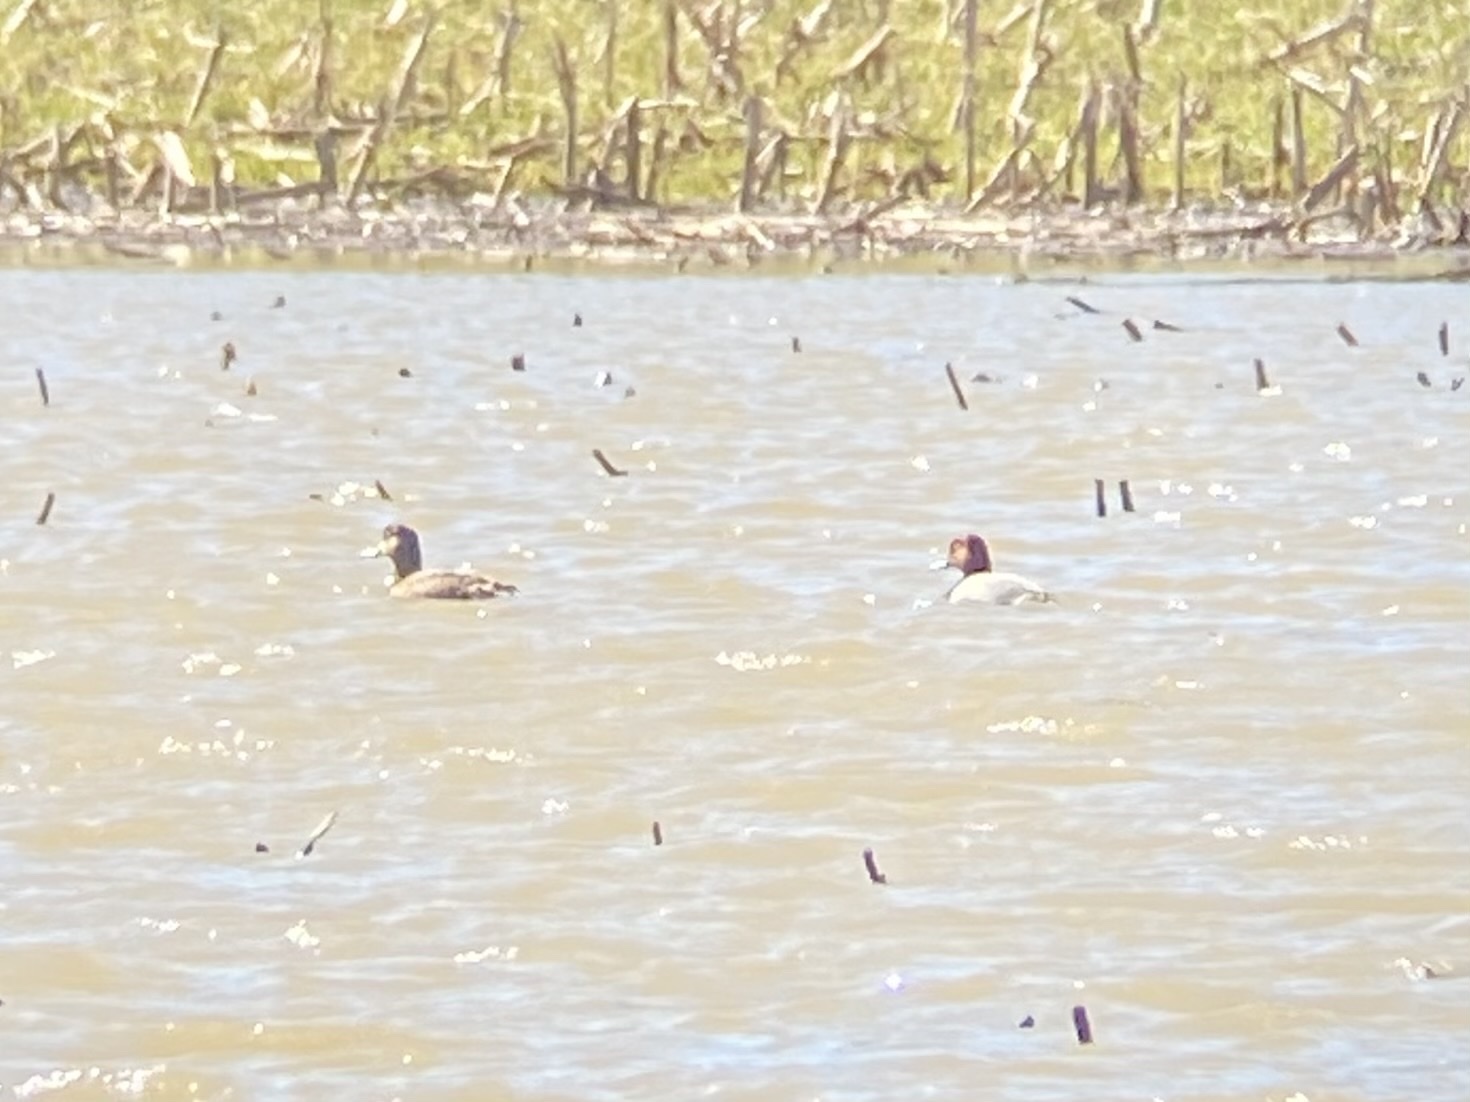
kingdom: Animalia
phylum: Chordata
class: Aves
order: Anseriformes
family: Anatidae
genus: Aythya
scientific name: Aythya americana
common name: Redhead
